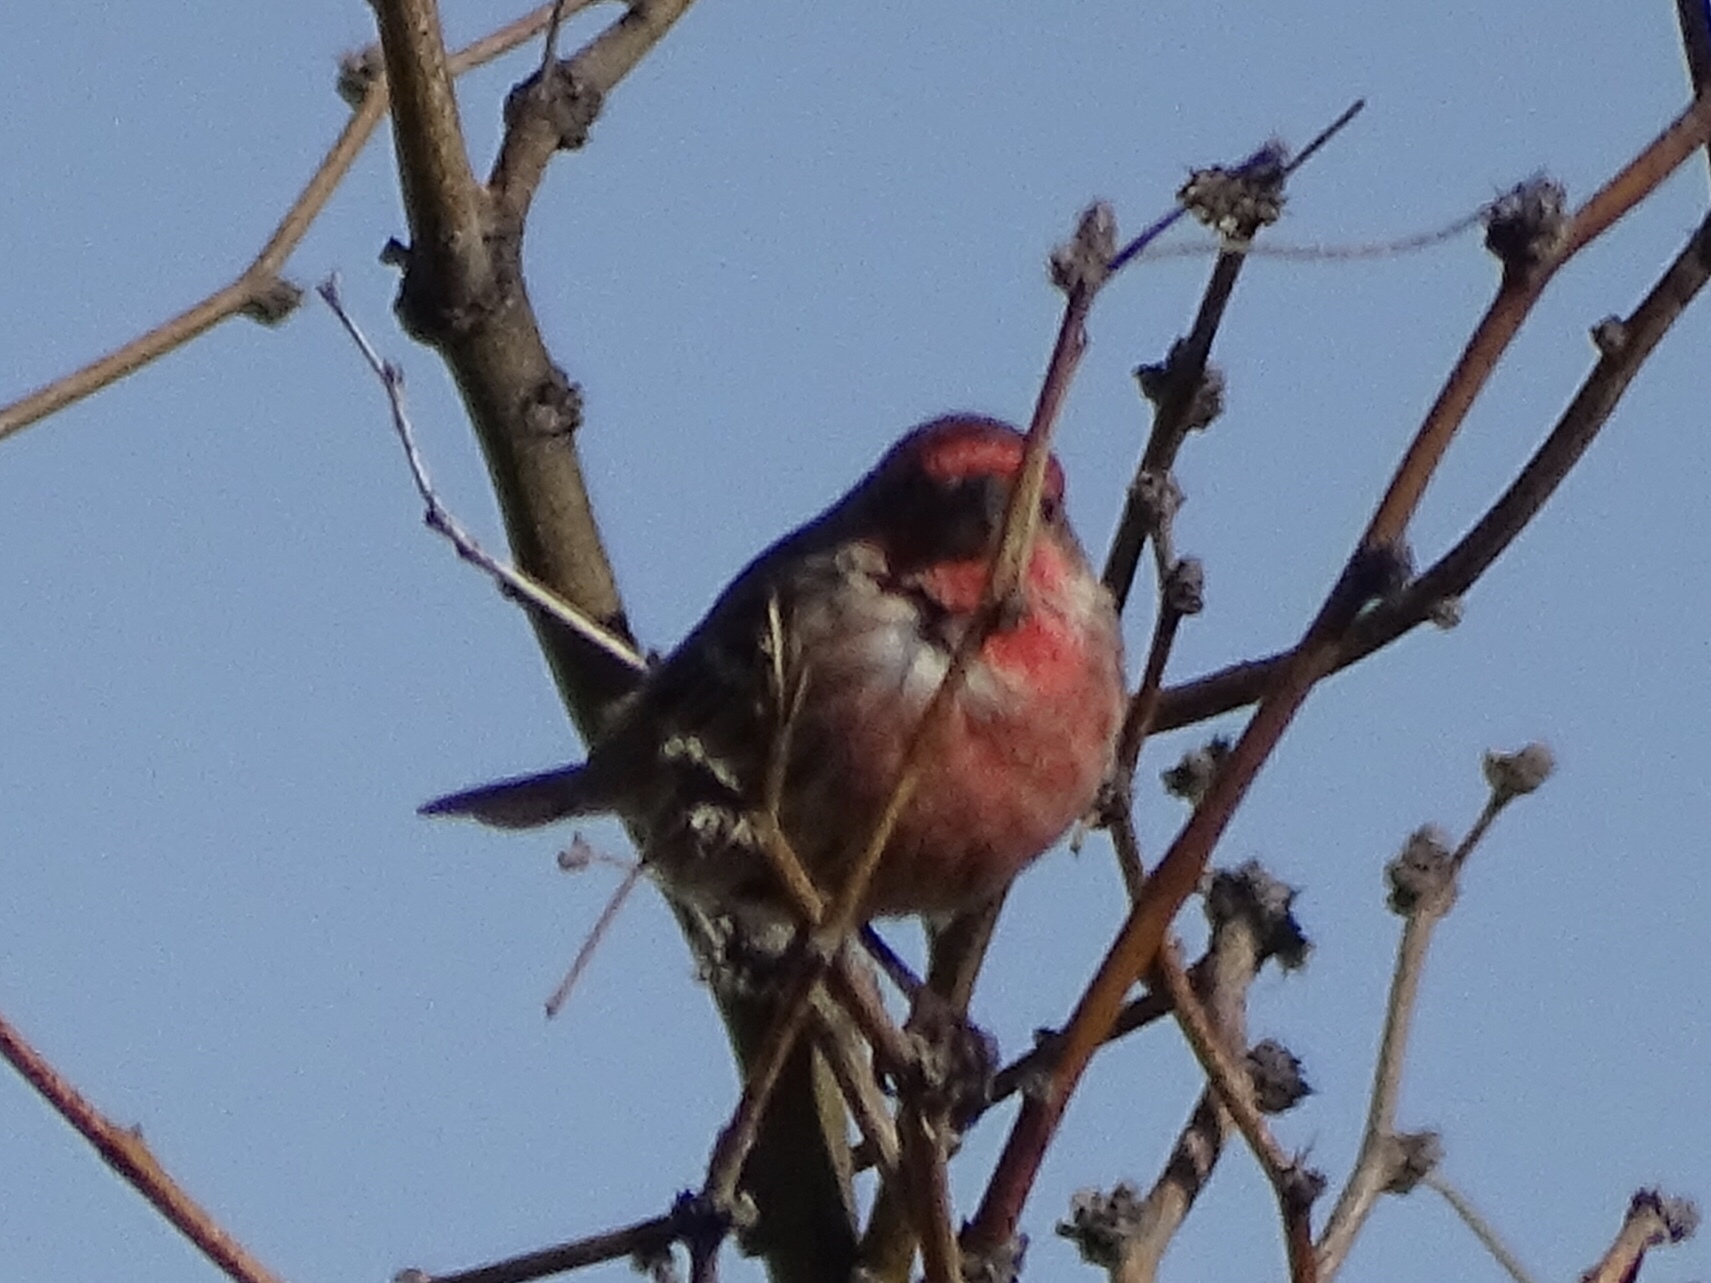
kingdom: Animalia
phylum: Chordata
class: Aves
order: Passeriformes
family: Fringillidae
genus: Haemorhous
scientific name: Haemorhous mexicanus
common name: House finch
